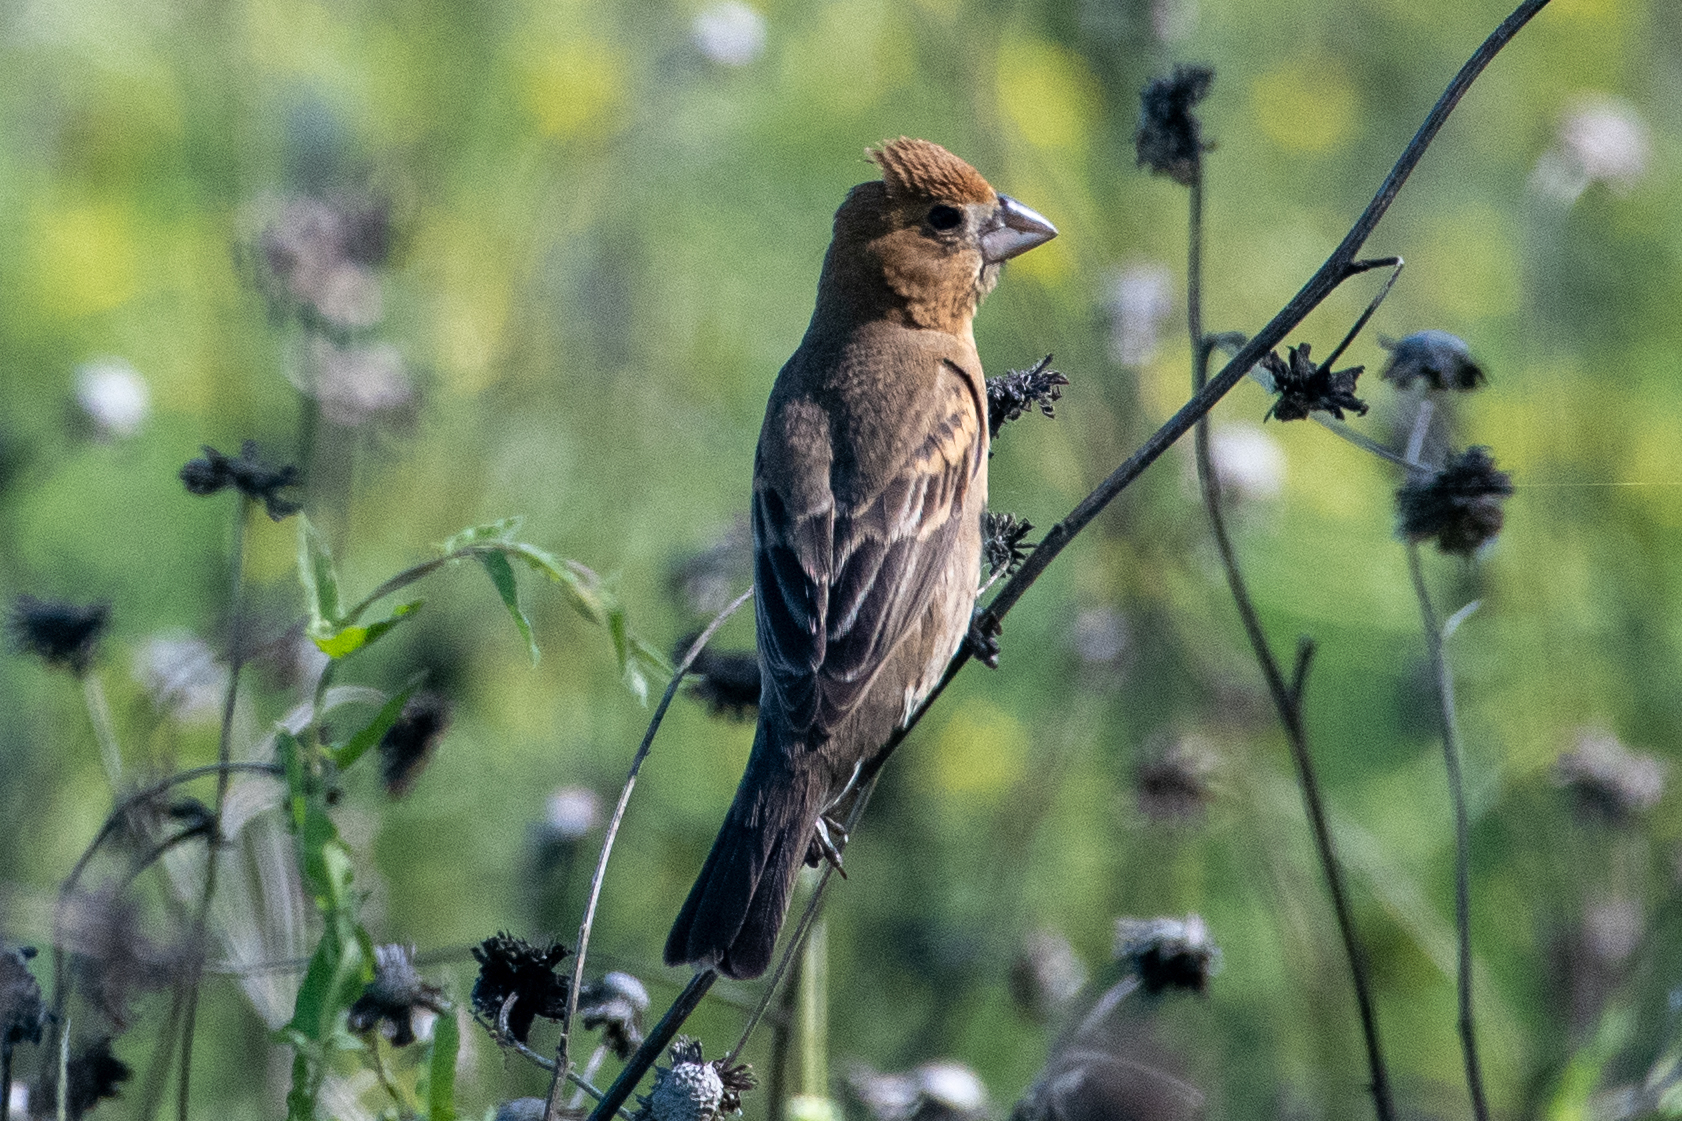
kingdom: Animalia
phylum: Chordata
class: Aves
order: Passeriformes
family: Cardinalidae
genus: Passerina
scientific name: Passerina caerulea
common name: Blue grosbeak
